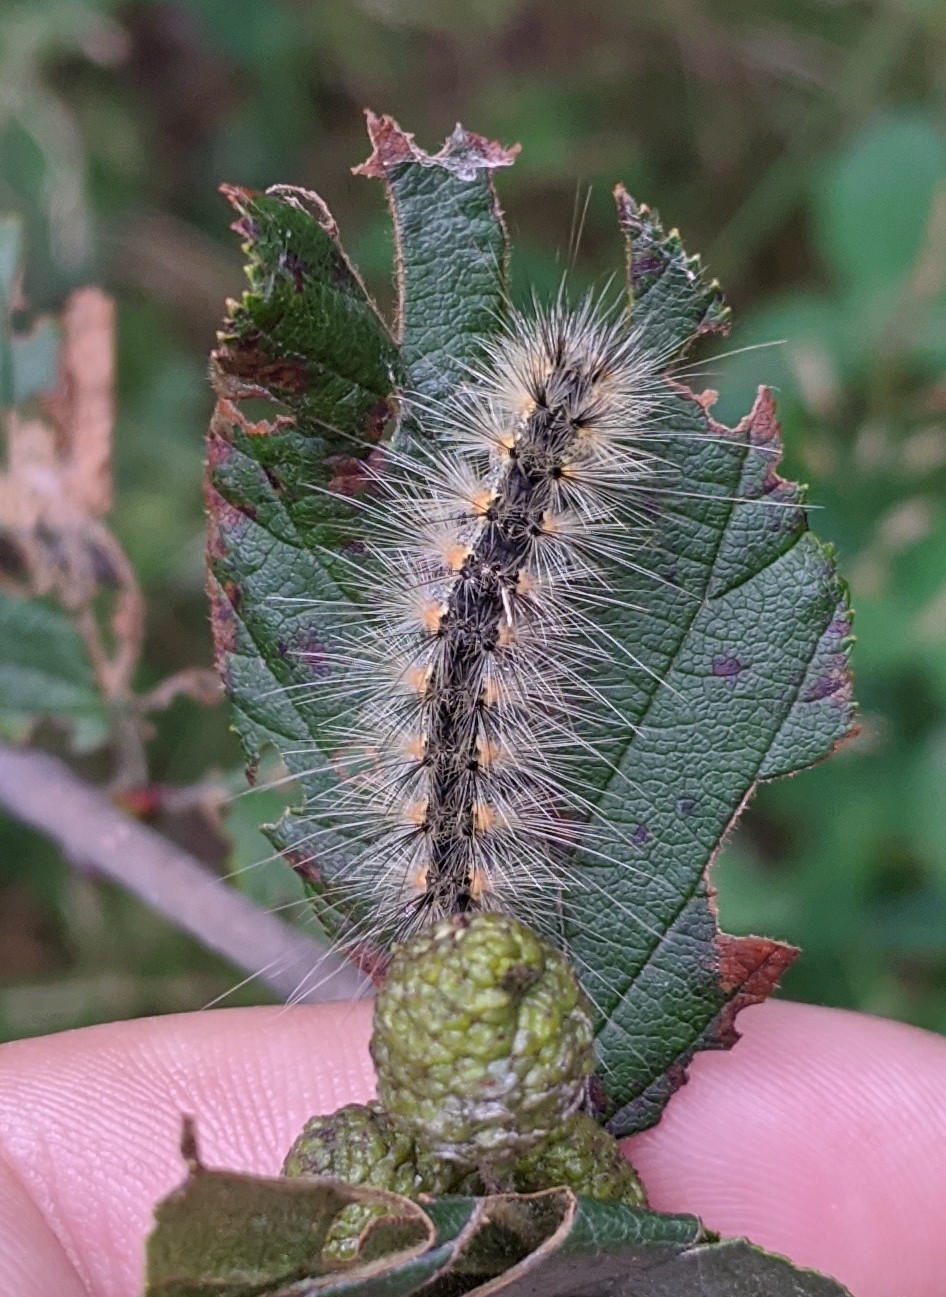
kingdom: Animalia
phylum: Arthropoda
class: Insecta
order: Lepidoptera
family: Erebidae
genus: Hyphantria
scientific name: Hyphantria cunea
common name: American white moth
